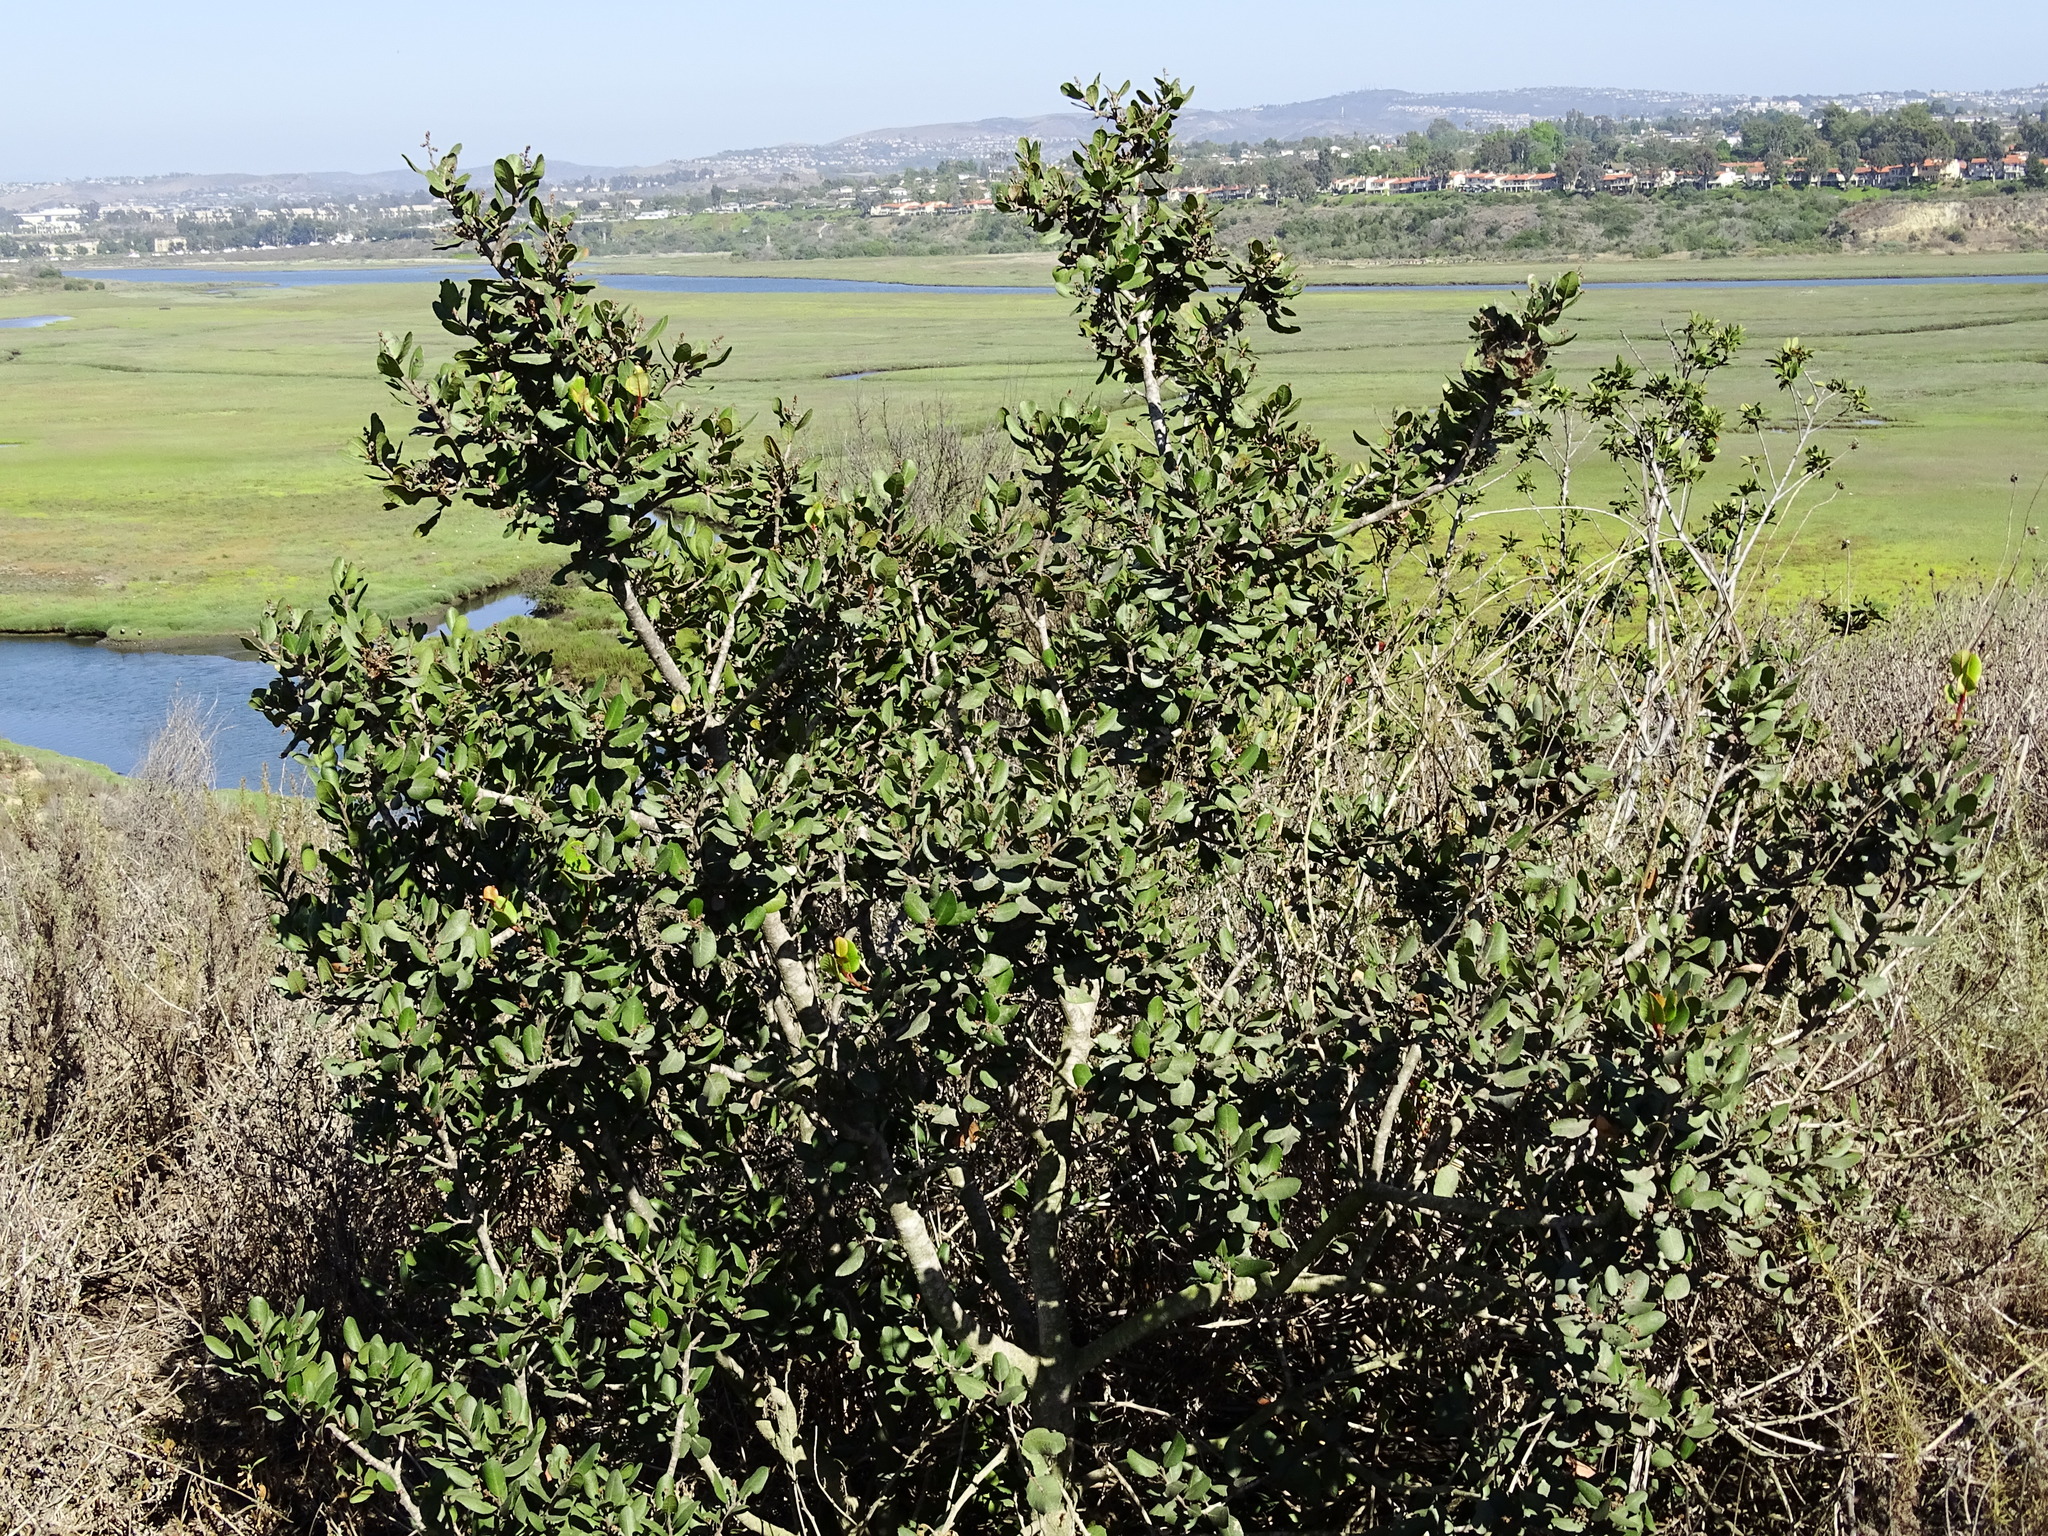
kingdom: Plantae
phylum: Tracheophyta
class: Magnoliopsida
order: Sapindales
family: Anacardiaceae
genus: Rhus
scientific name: Rhus integrifolia
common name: Lemonade sumac
